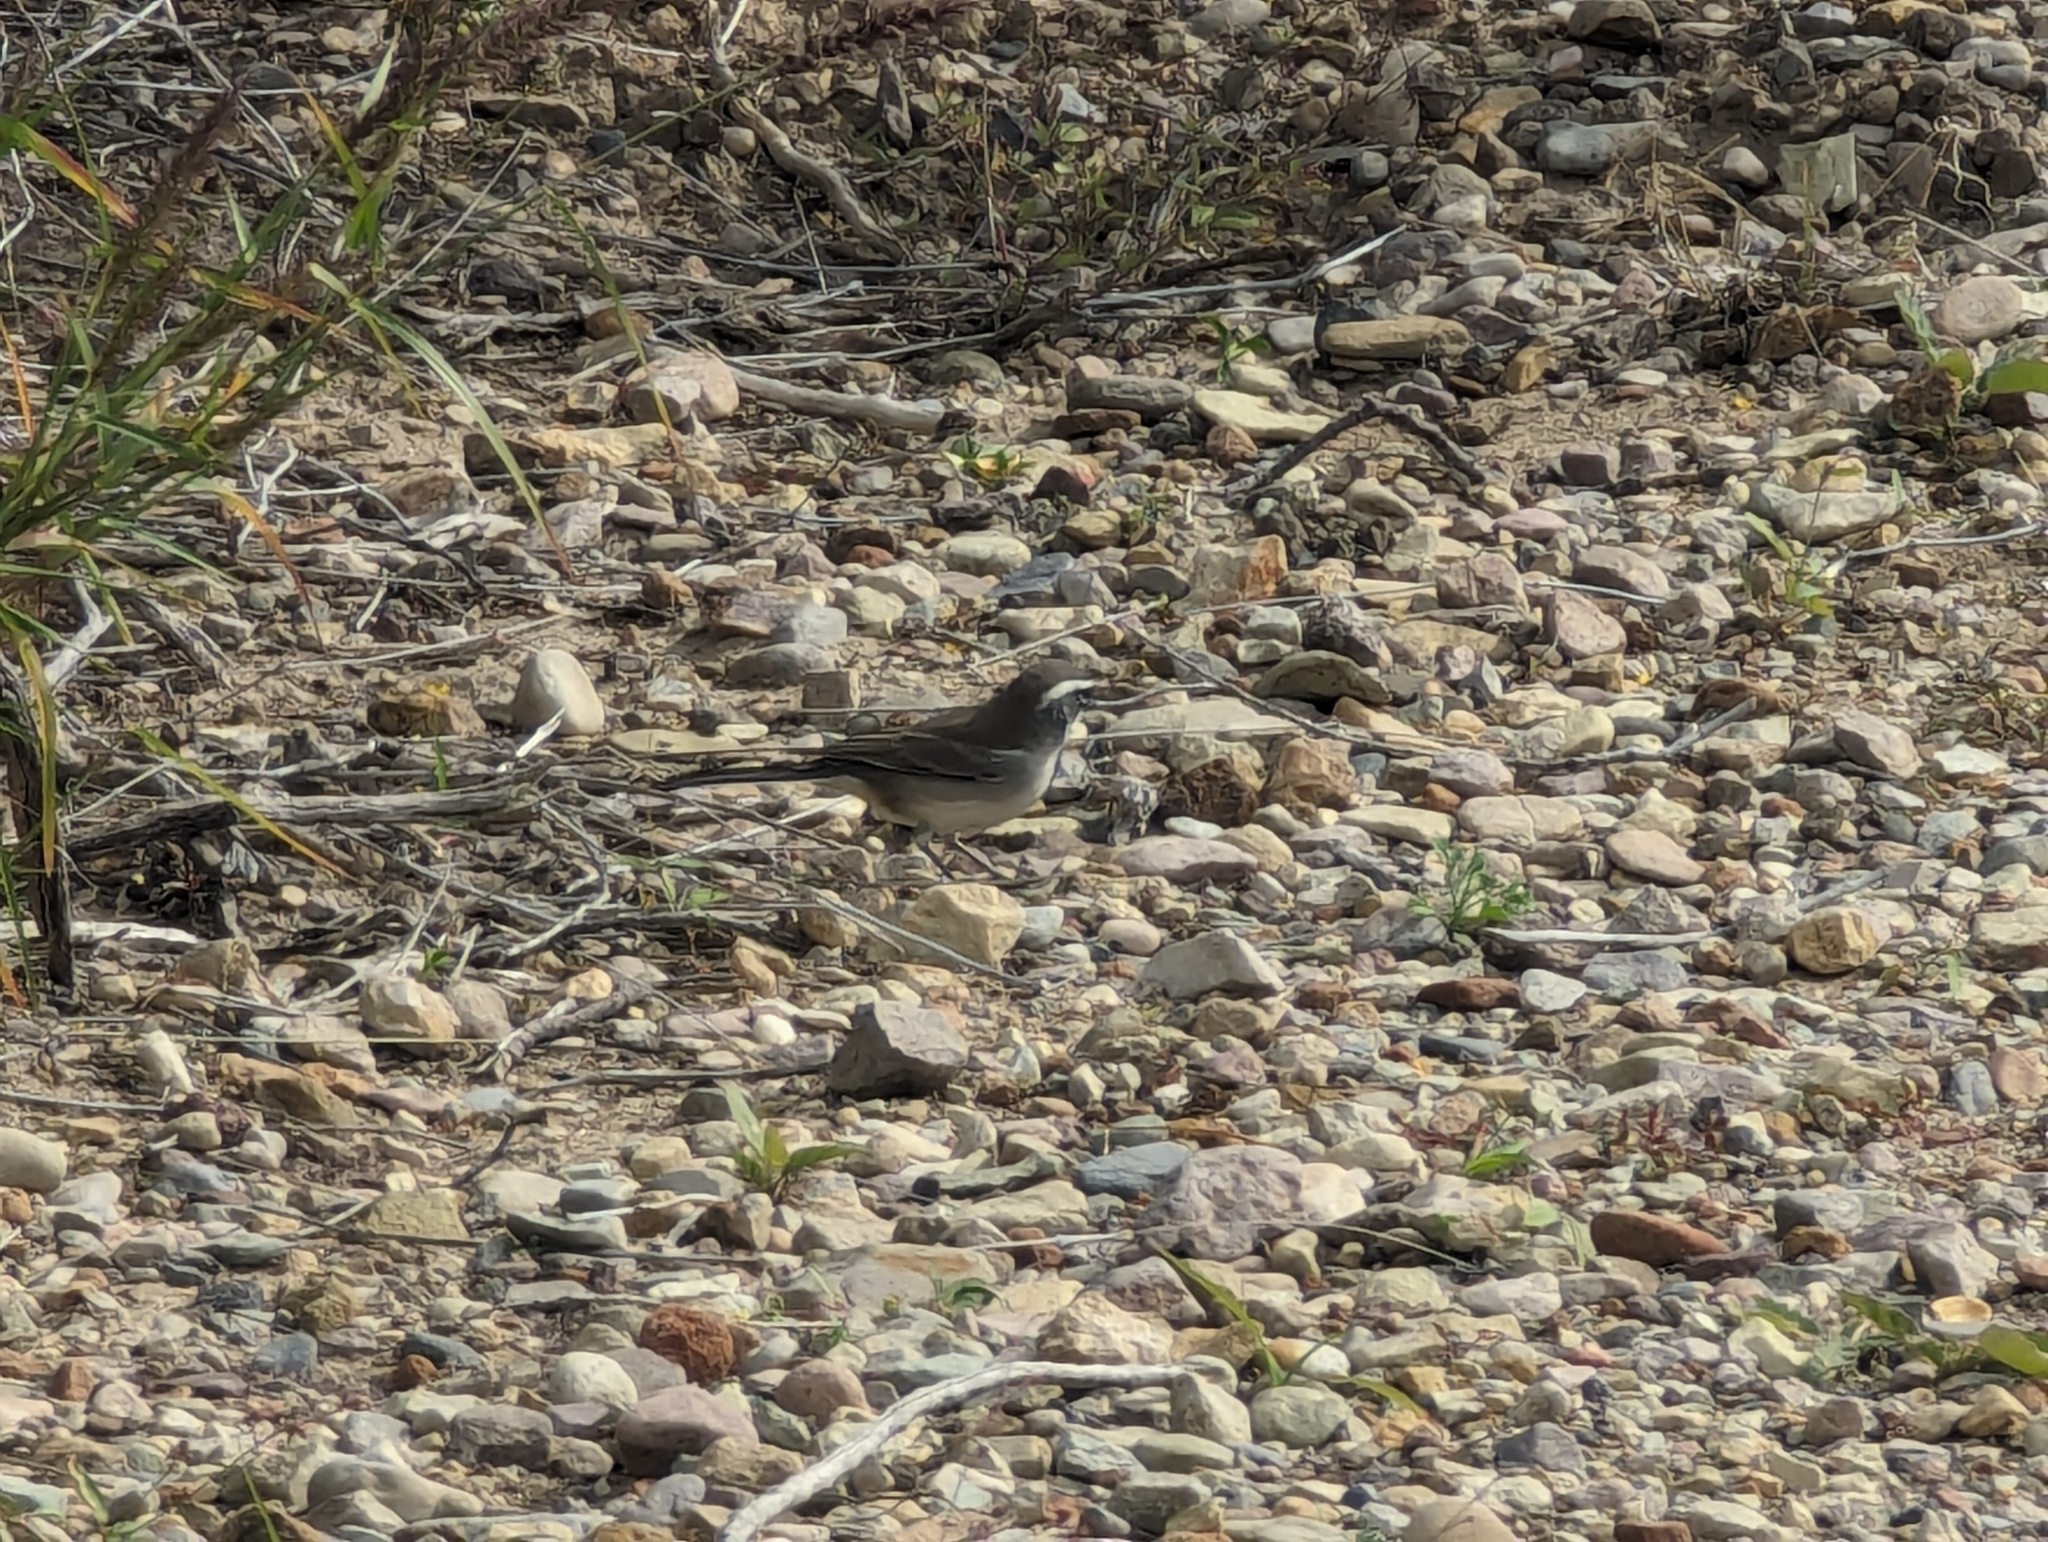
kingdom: Animalia
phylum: Chordata
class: Aves
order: Passeriformes
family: Passerellidae
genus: Amphispiza
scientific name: Amphispiza bilineata
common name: Black-throated sparrow
